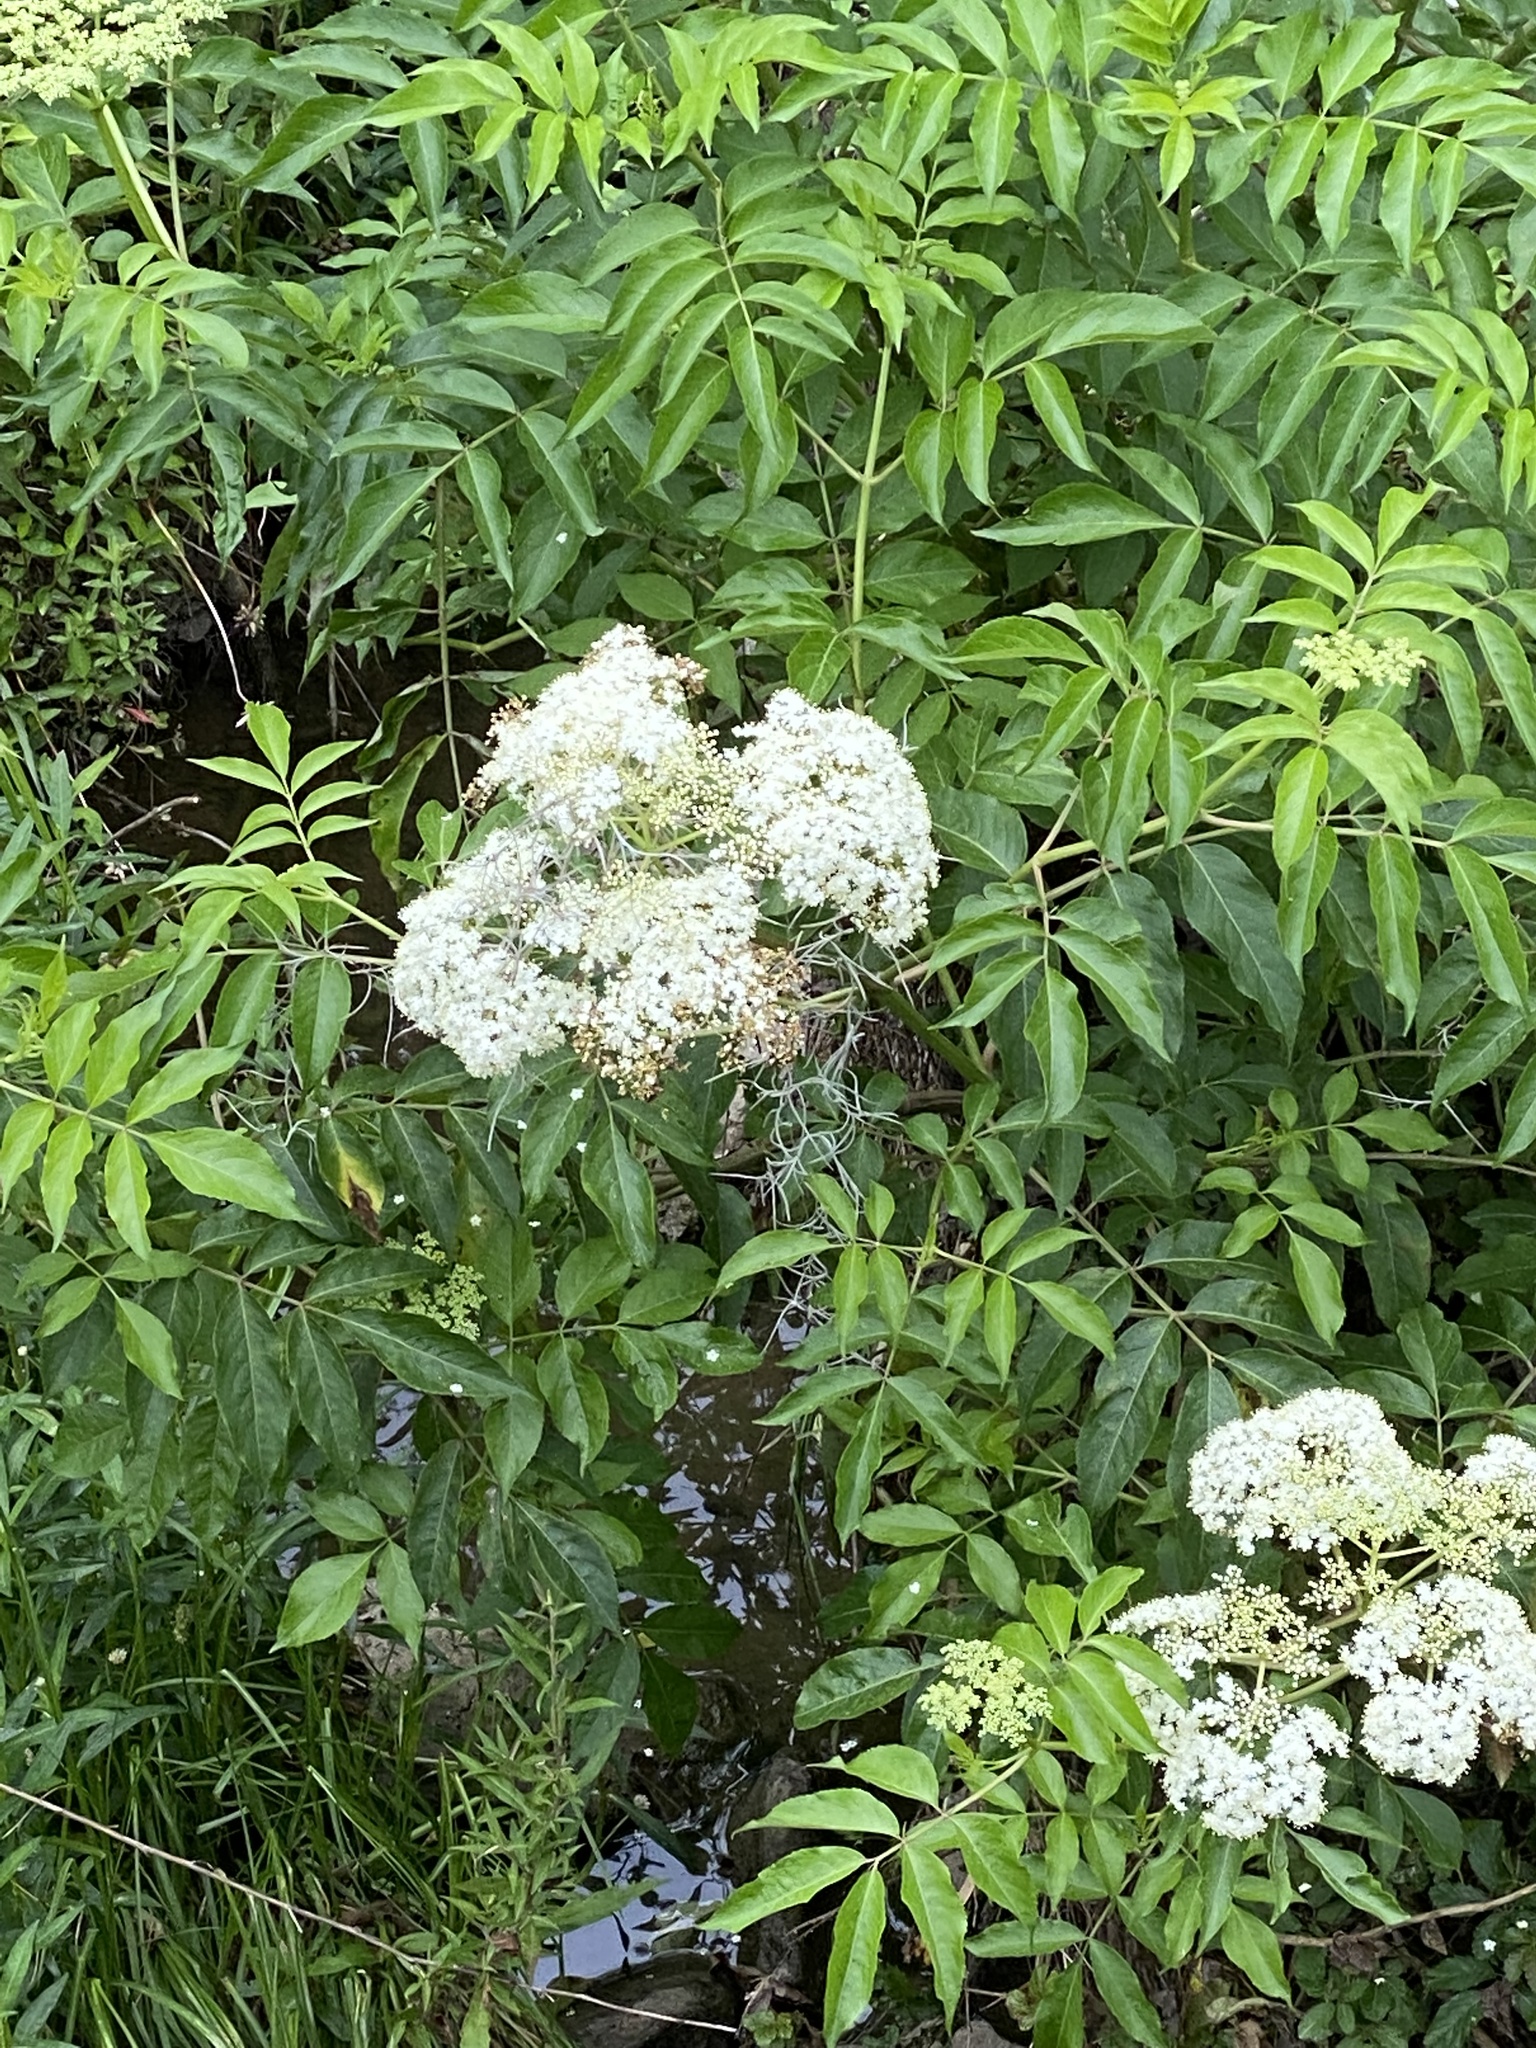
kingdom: Plantae
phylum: Tracheophyta
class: Magnoliopsida
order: Dipsacales
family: Viburnaceae
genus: Sambucus
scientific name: Sambucus canadensis
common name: American elder
